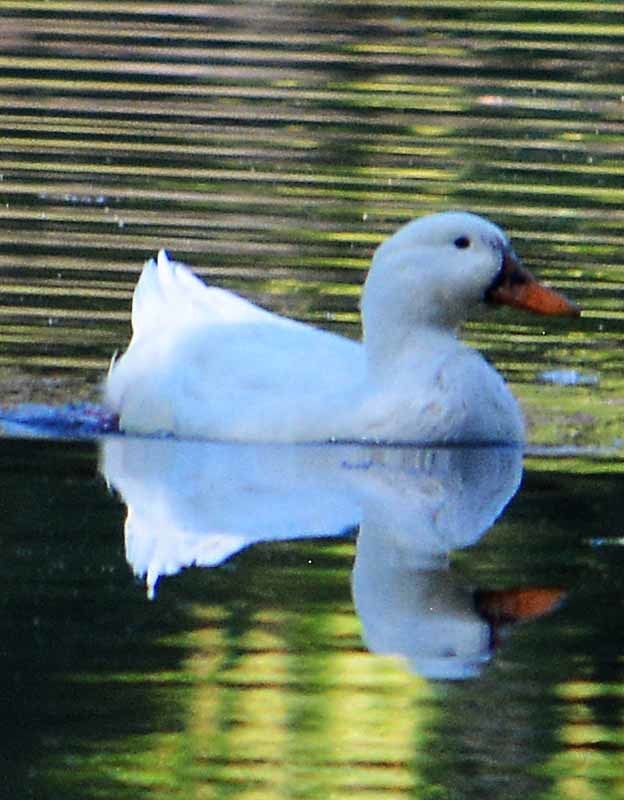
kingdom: Animalia
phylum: Chordata
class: Aves
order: Anseriformes
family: Anatidae
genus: Anas
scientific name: Anas platyrhynchos
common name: Mallard
